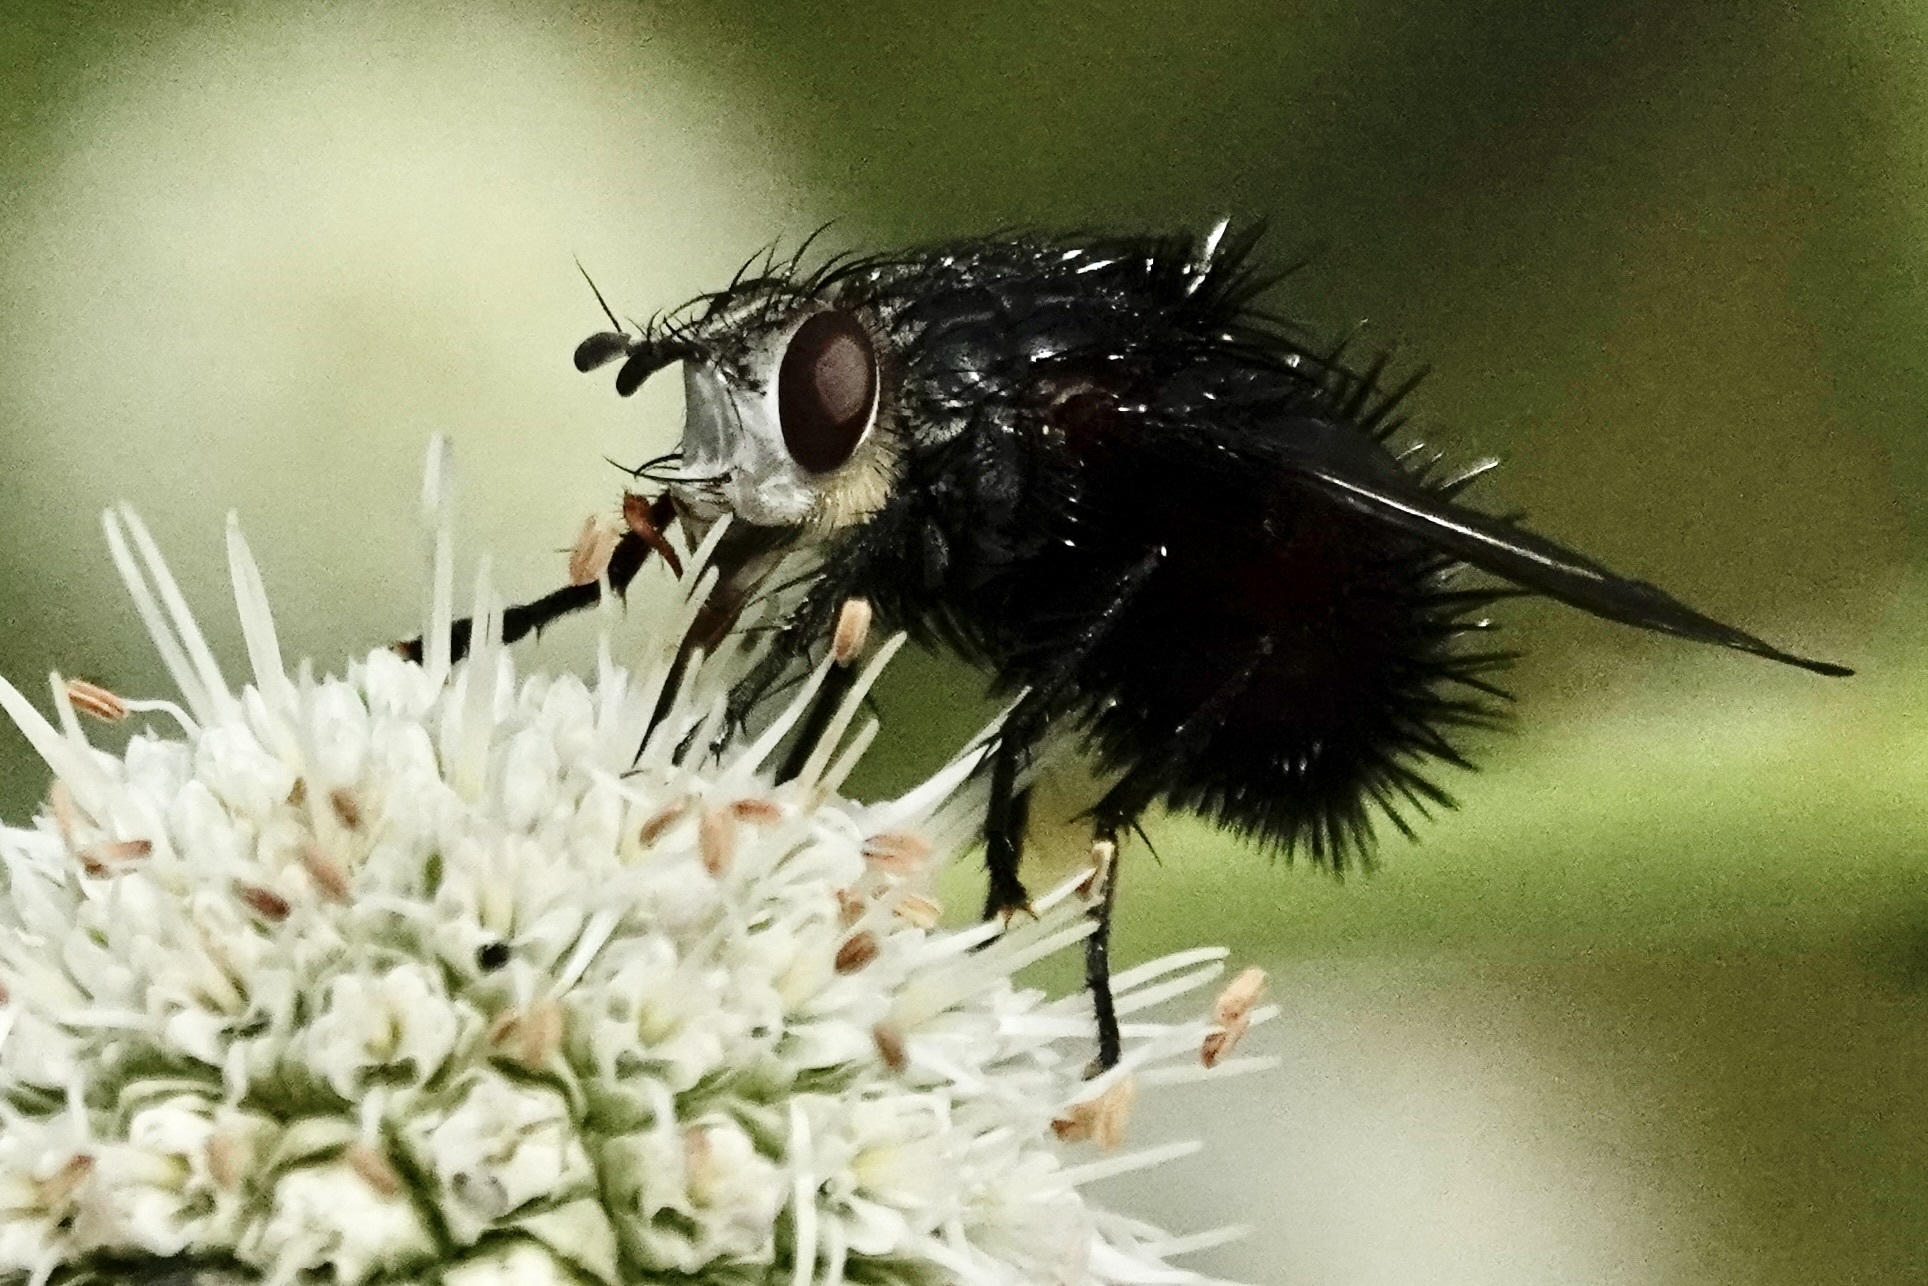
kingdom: Animalia
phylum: Arthropoda
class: Insecta
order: Diptera
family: Tachinidae
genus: Juriniopsis
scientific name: Juriniopsis adusta
